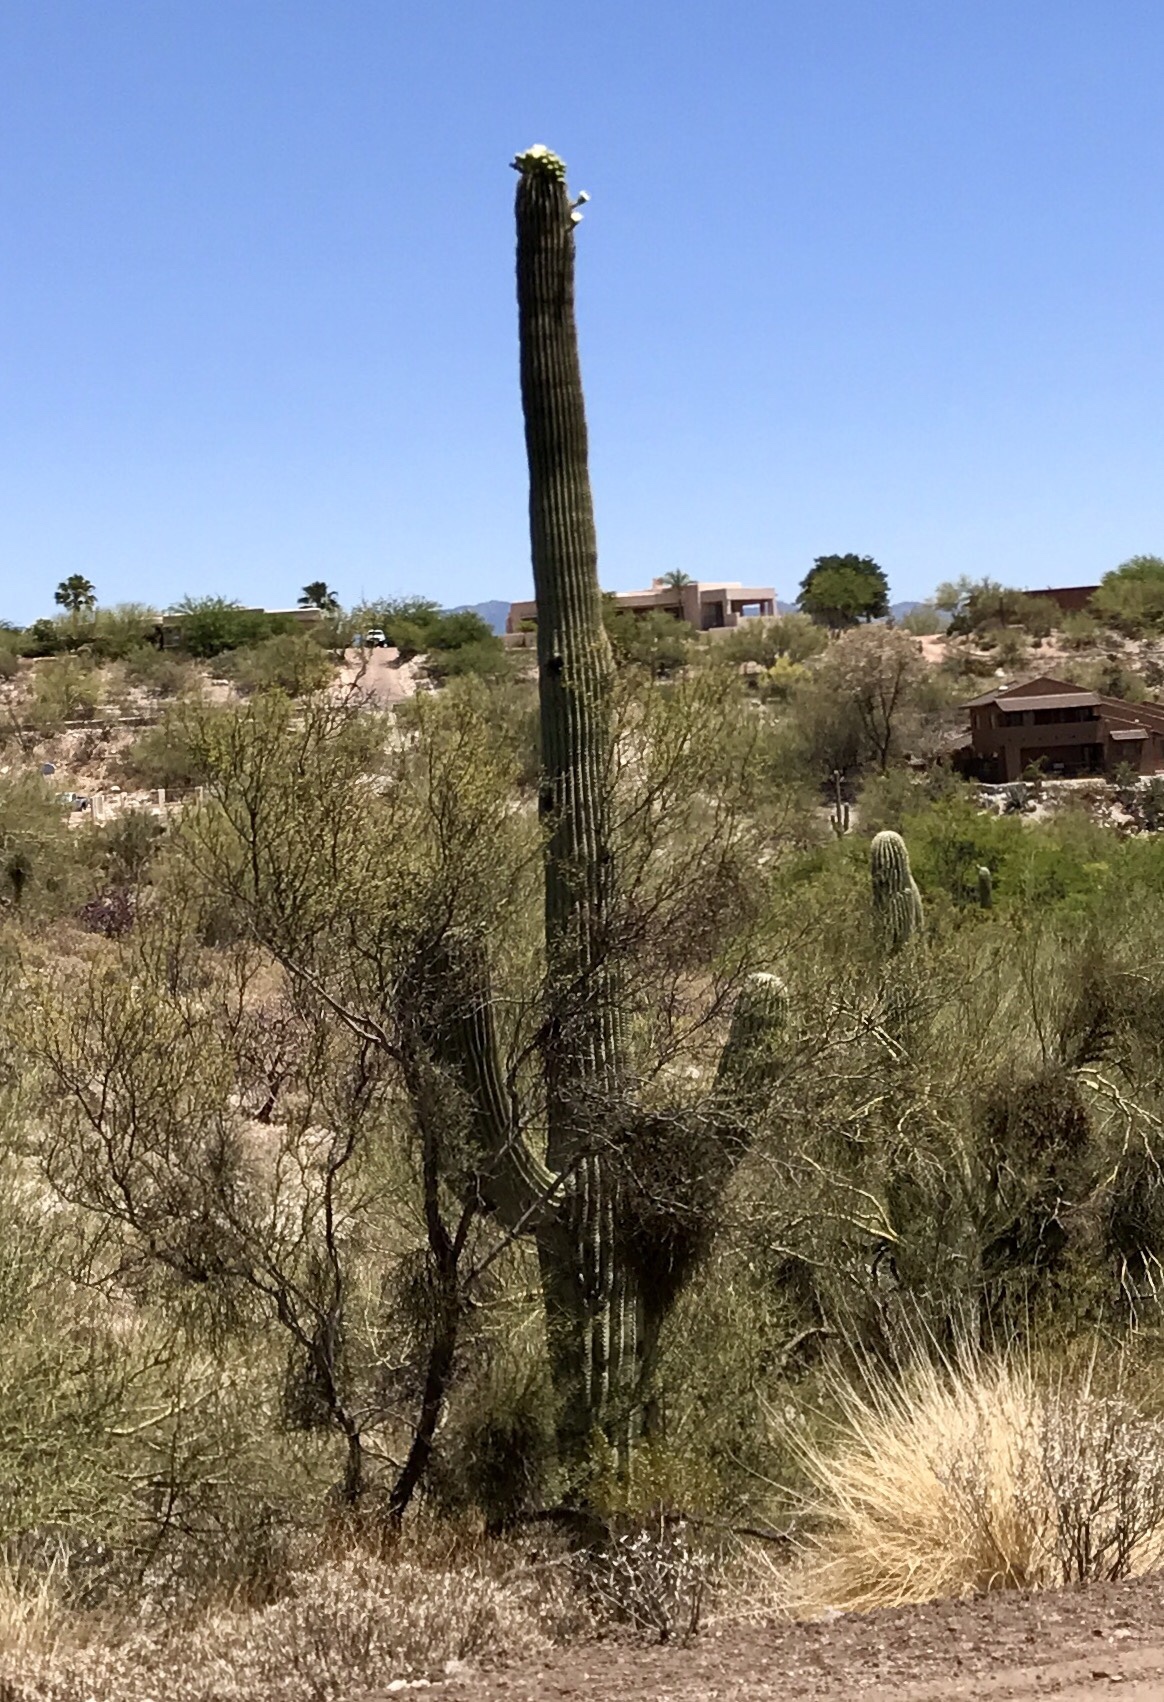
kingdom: Plantae
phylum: Tracheophyta
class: Magnoliopsida
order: Caryophyllales
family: Cactaceae
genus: Carnegiea
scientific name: Carnegiea gigantea
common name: Saguaro
